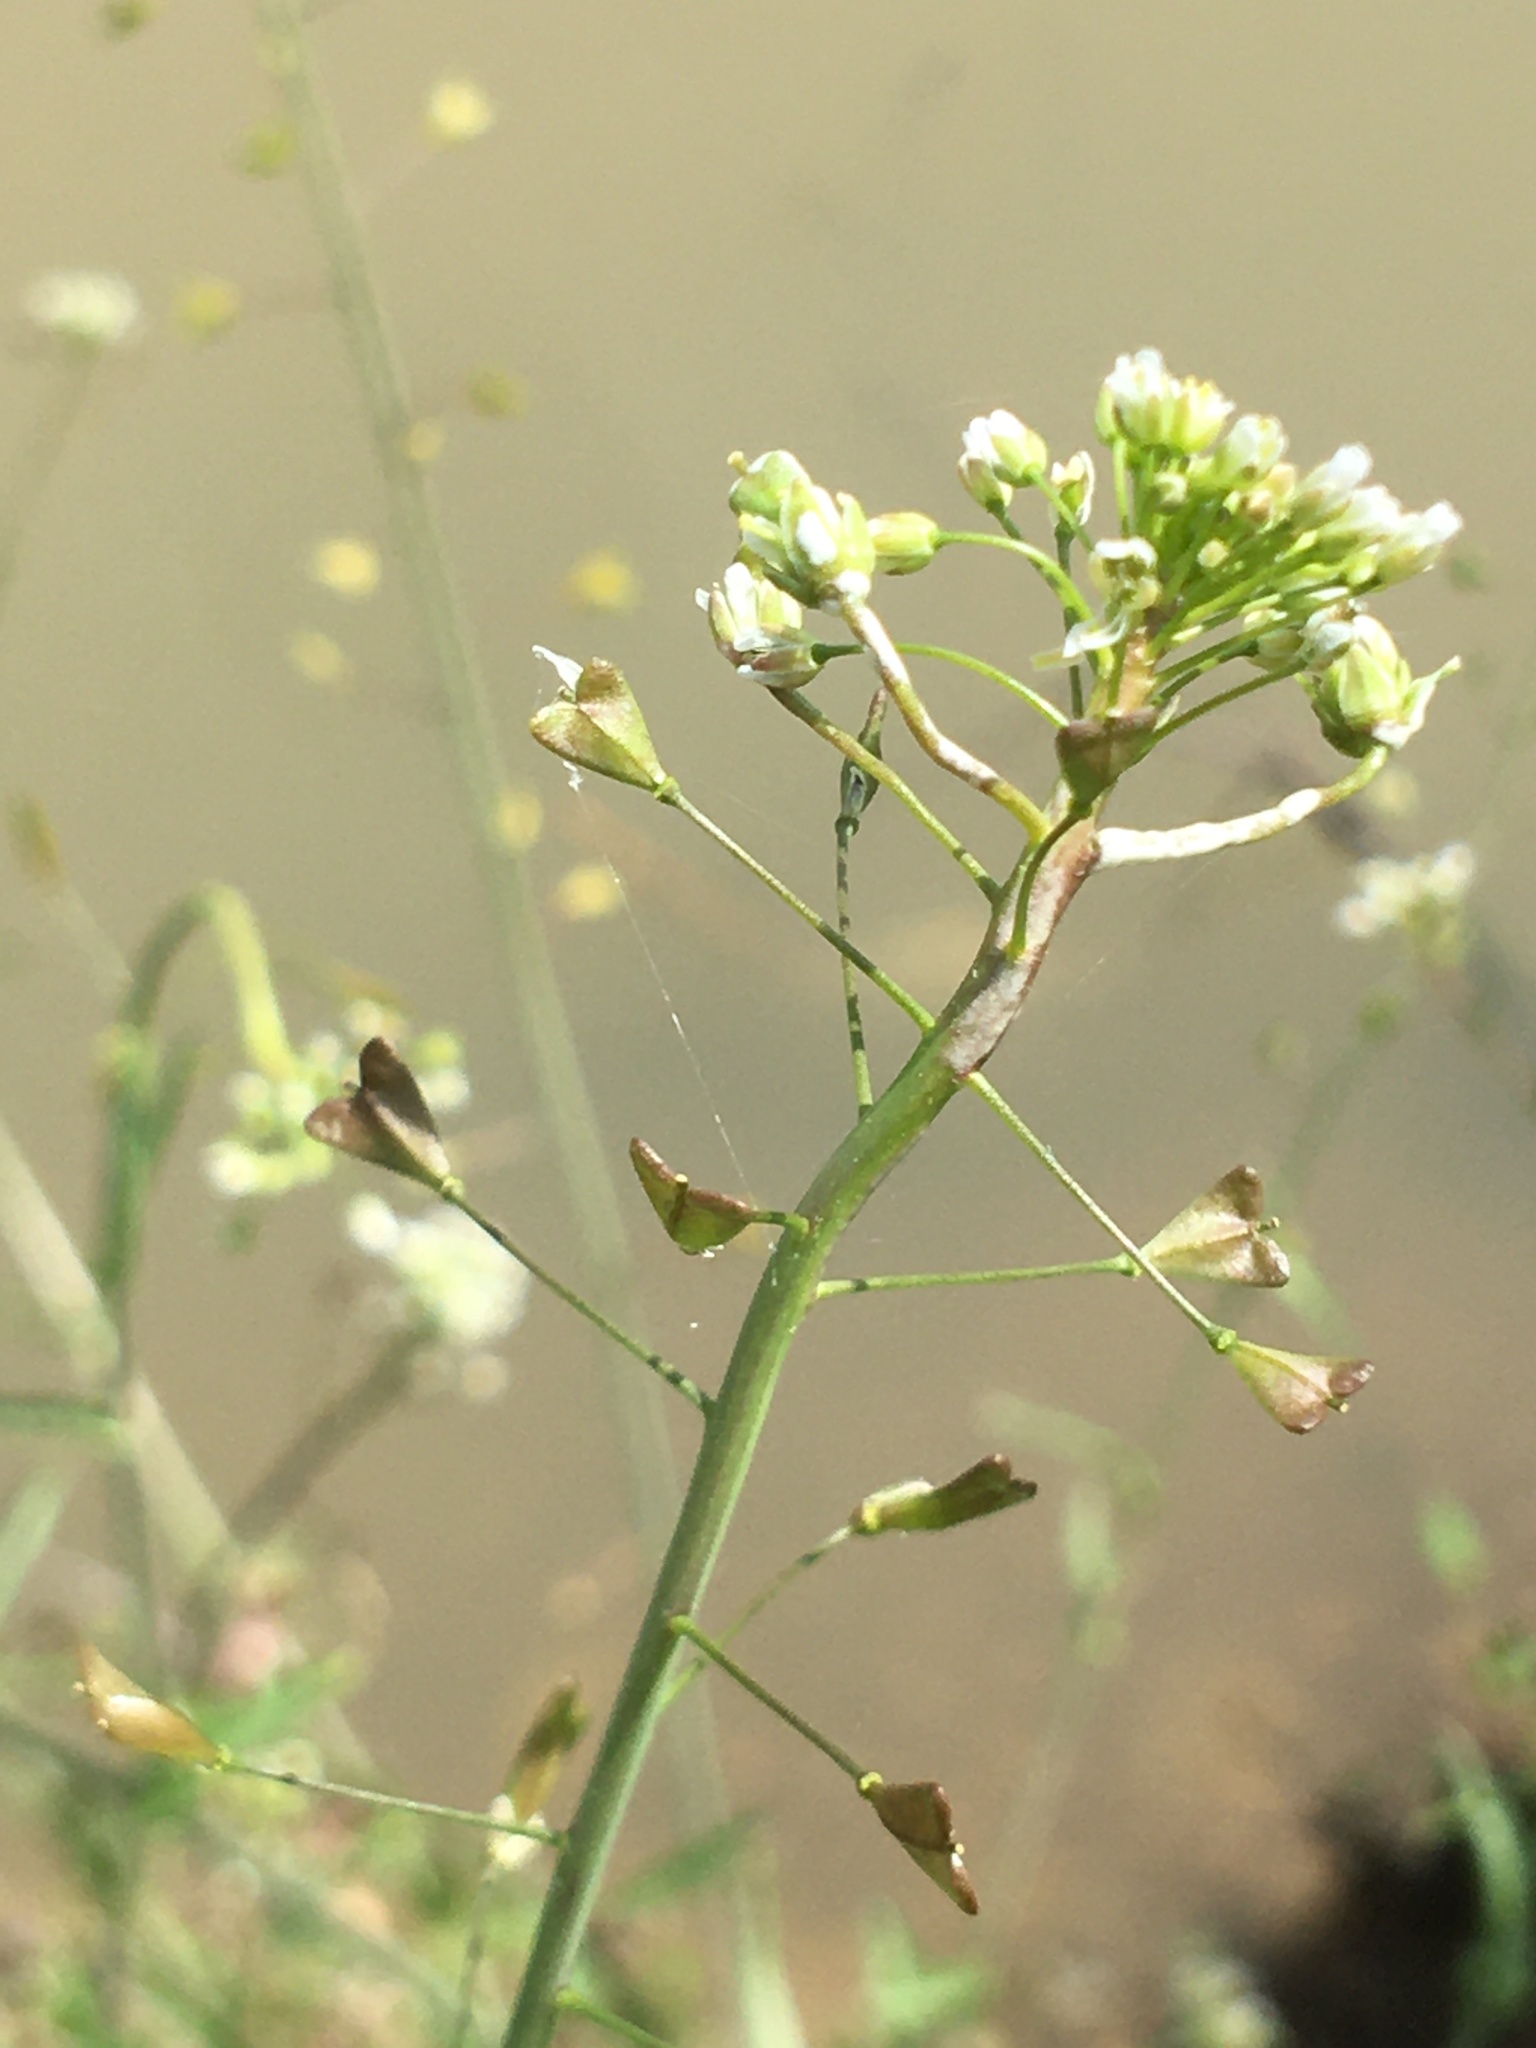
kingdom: Plantae
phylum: Tracheophyta
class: Magnoliopsida
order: Brassicales
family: Brassicaceae
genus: Capsella
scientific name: Capsella bursa-pastoris
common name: Shepherd's purse
